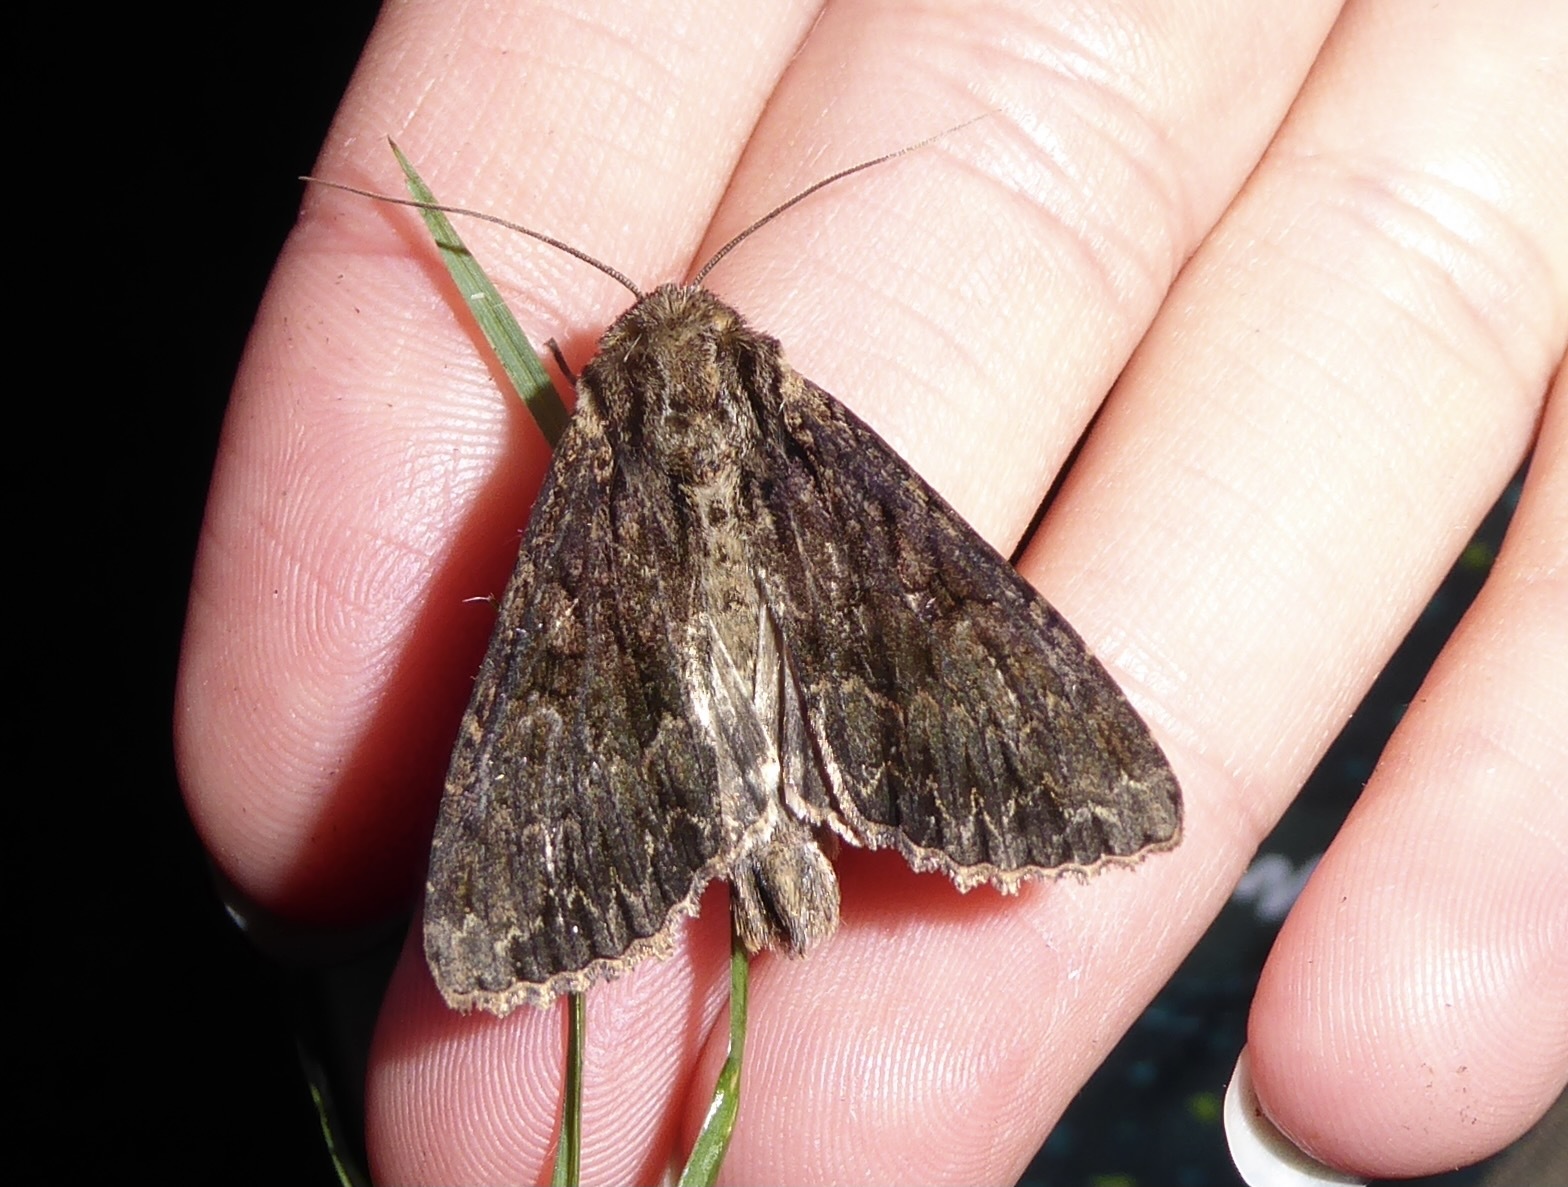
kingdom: Animalia
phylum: Arthropoda
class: Insecta
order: Lepidoptera
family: Noctuidae
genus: Apamea
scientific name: Apamea monoglypha
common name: Dark arches
